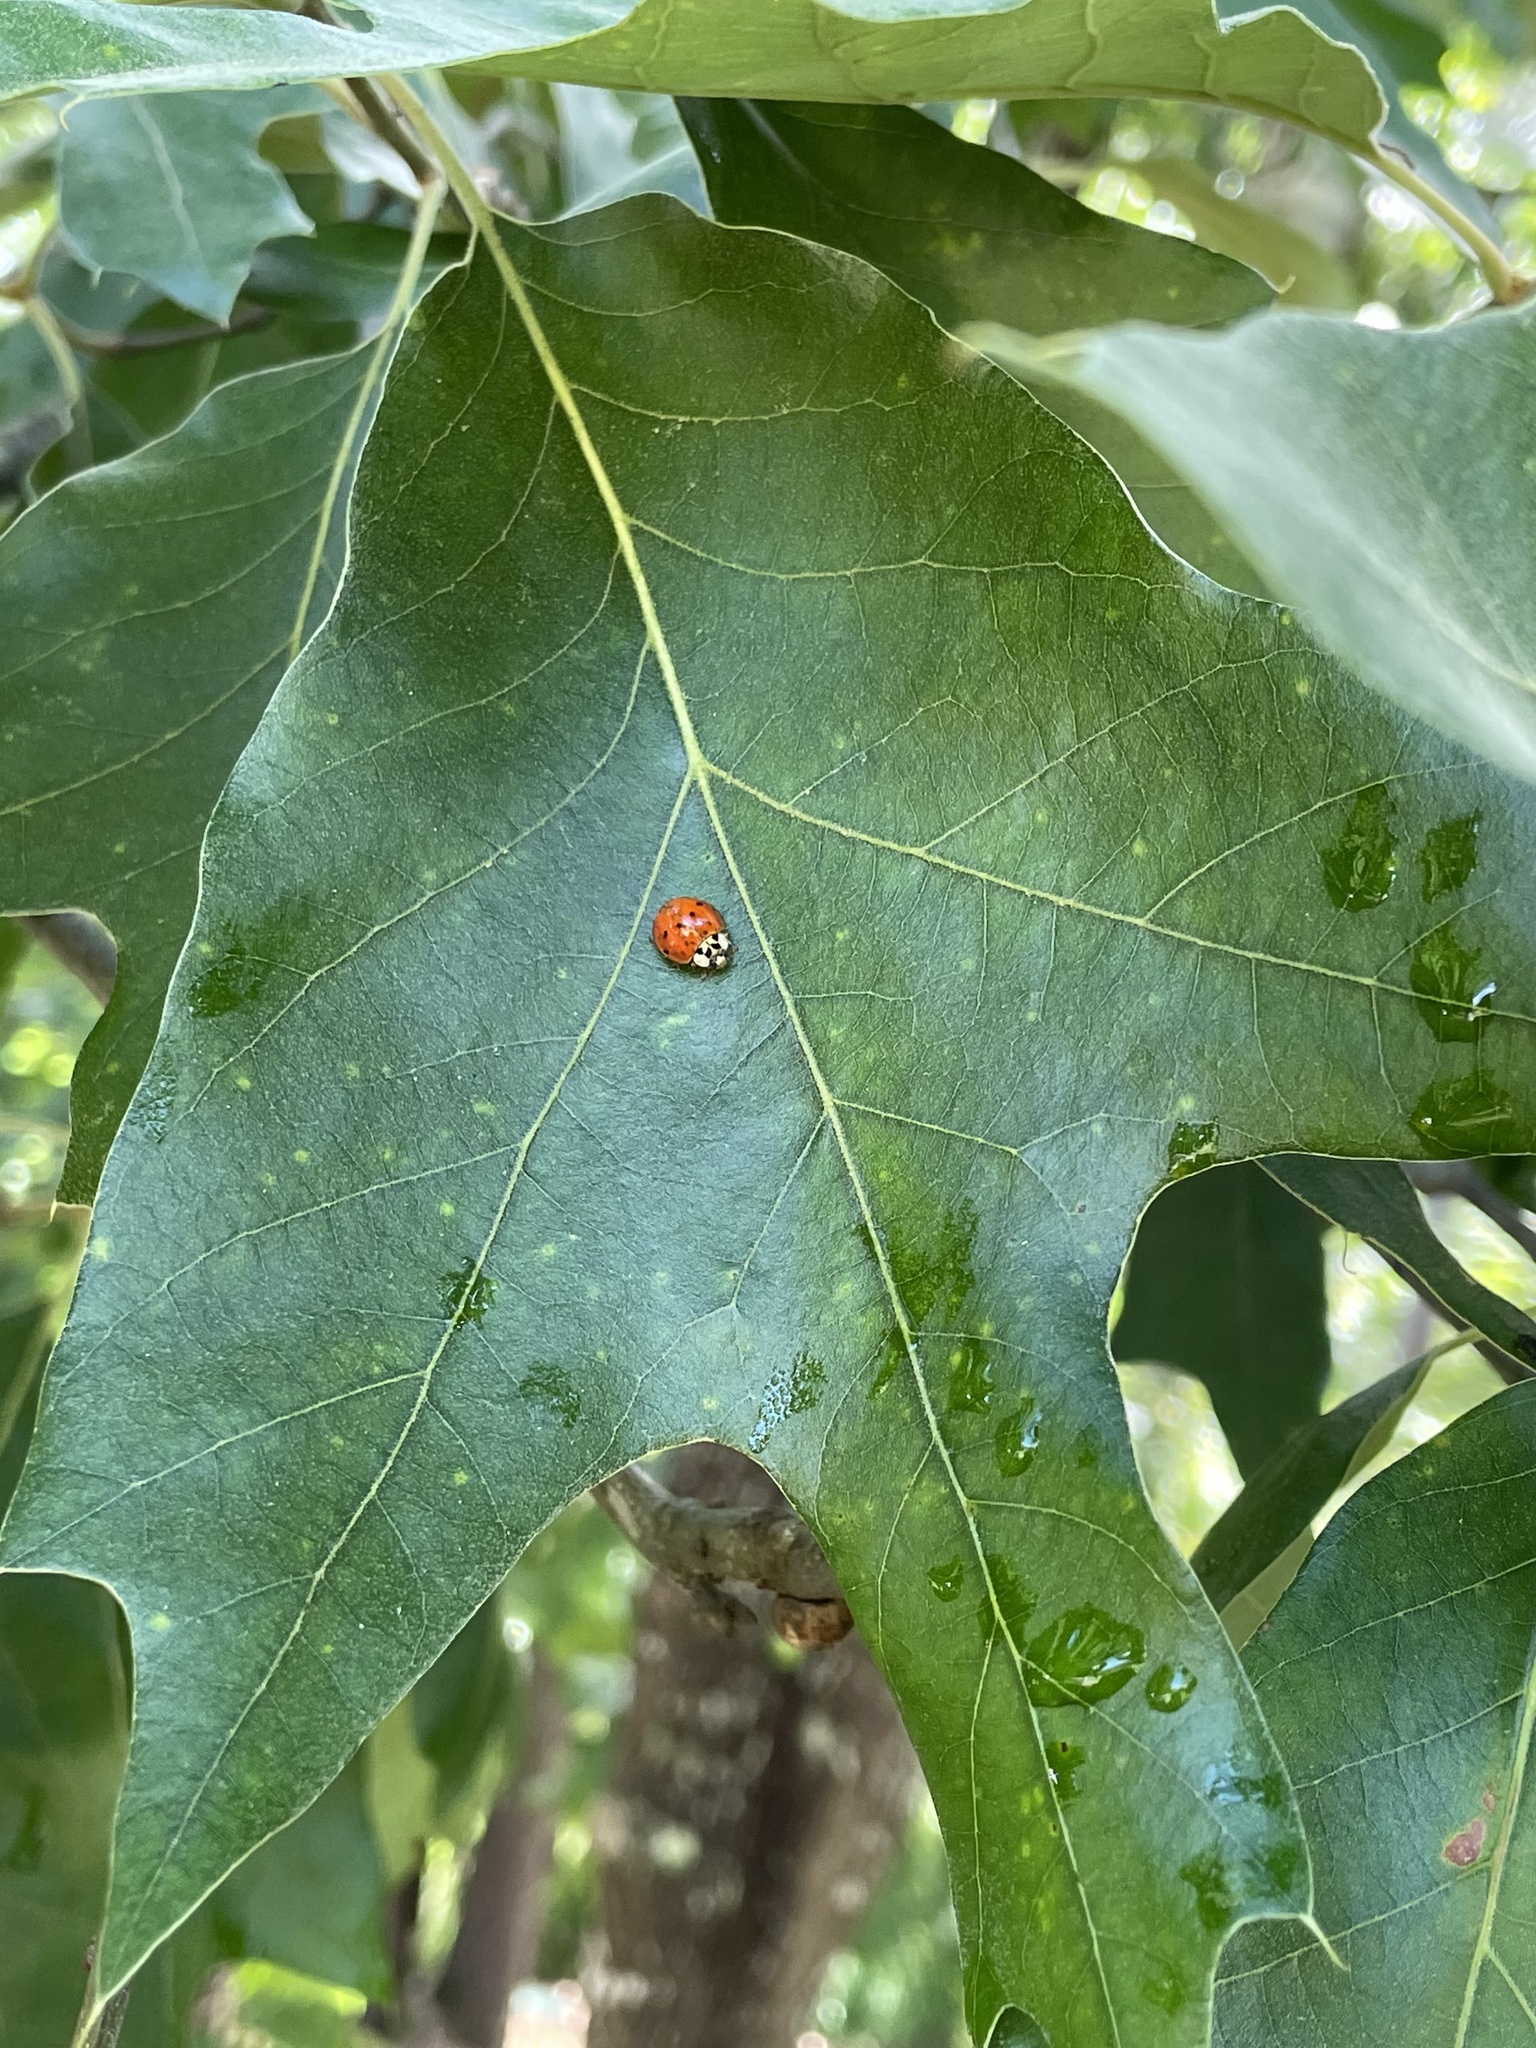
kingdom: Animalia
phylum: Arthropoda
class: Insecta
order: Coleoptera
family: Coccinellidae
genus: Harmonia
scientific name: Harmonia axyridis
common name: Harlequin ladybird
